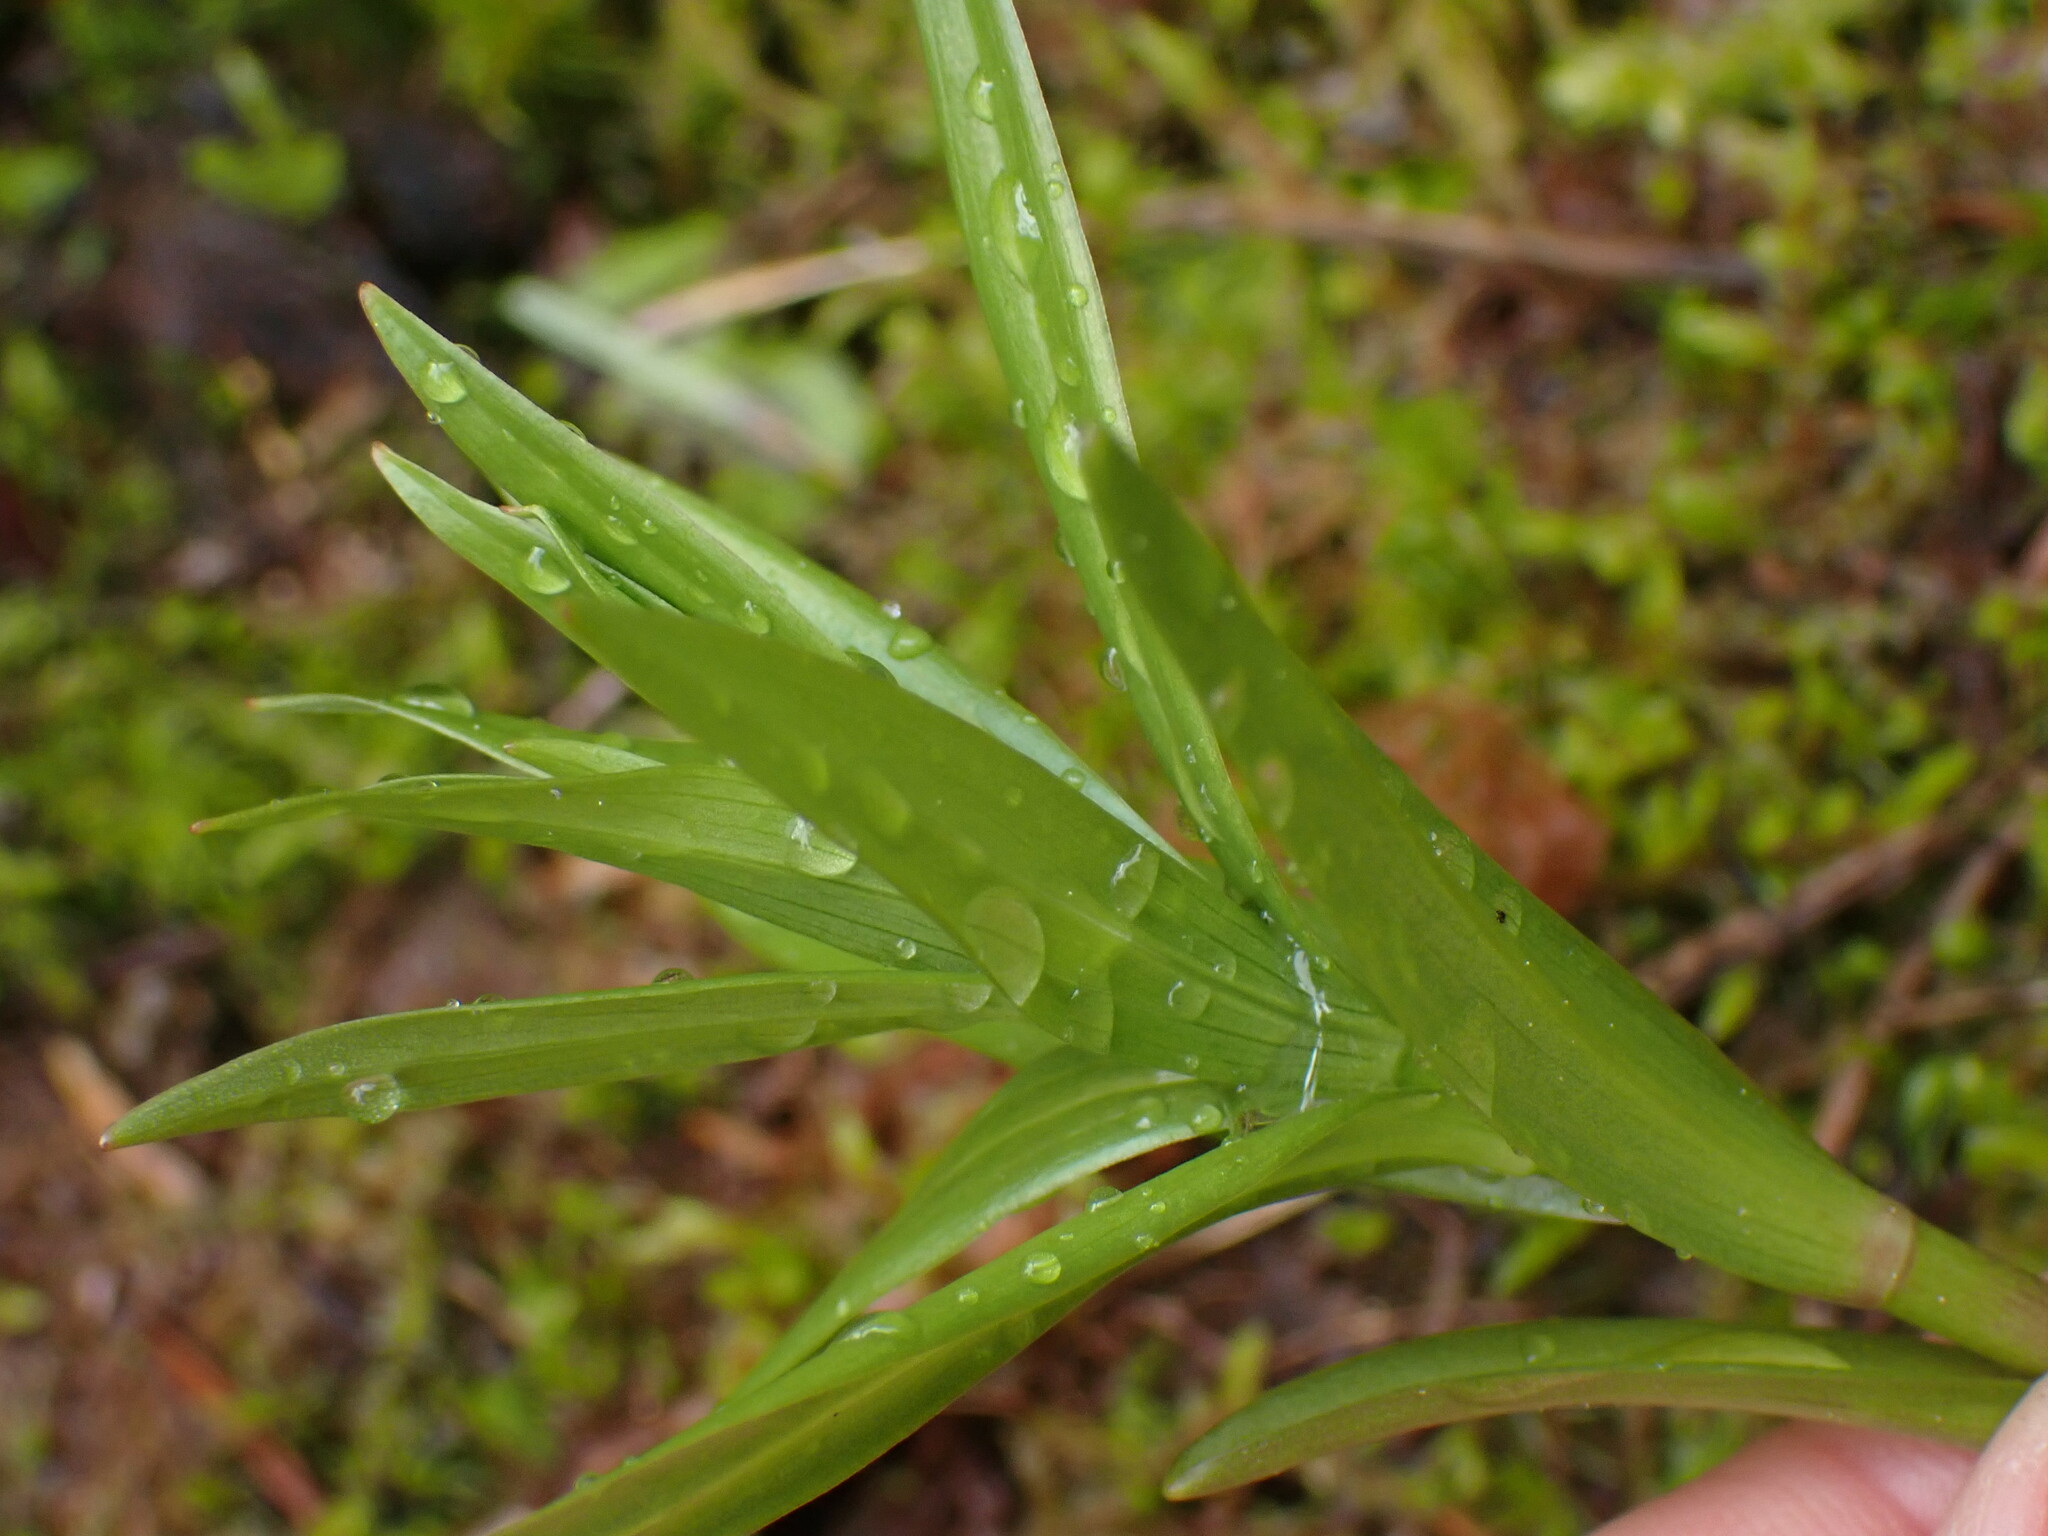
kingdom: Plantae
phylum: Tracheophyta
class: Liliopsida
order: Liliales
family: Liliaceae
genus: Lilium
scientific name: Lilium columbianum
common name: Columbia lily
